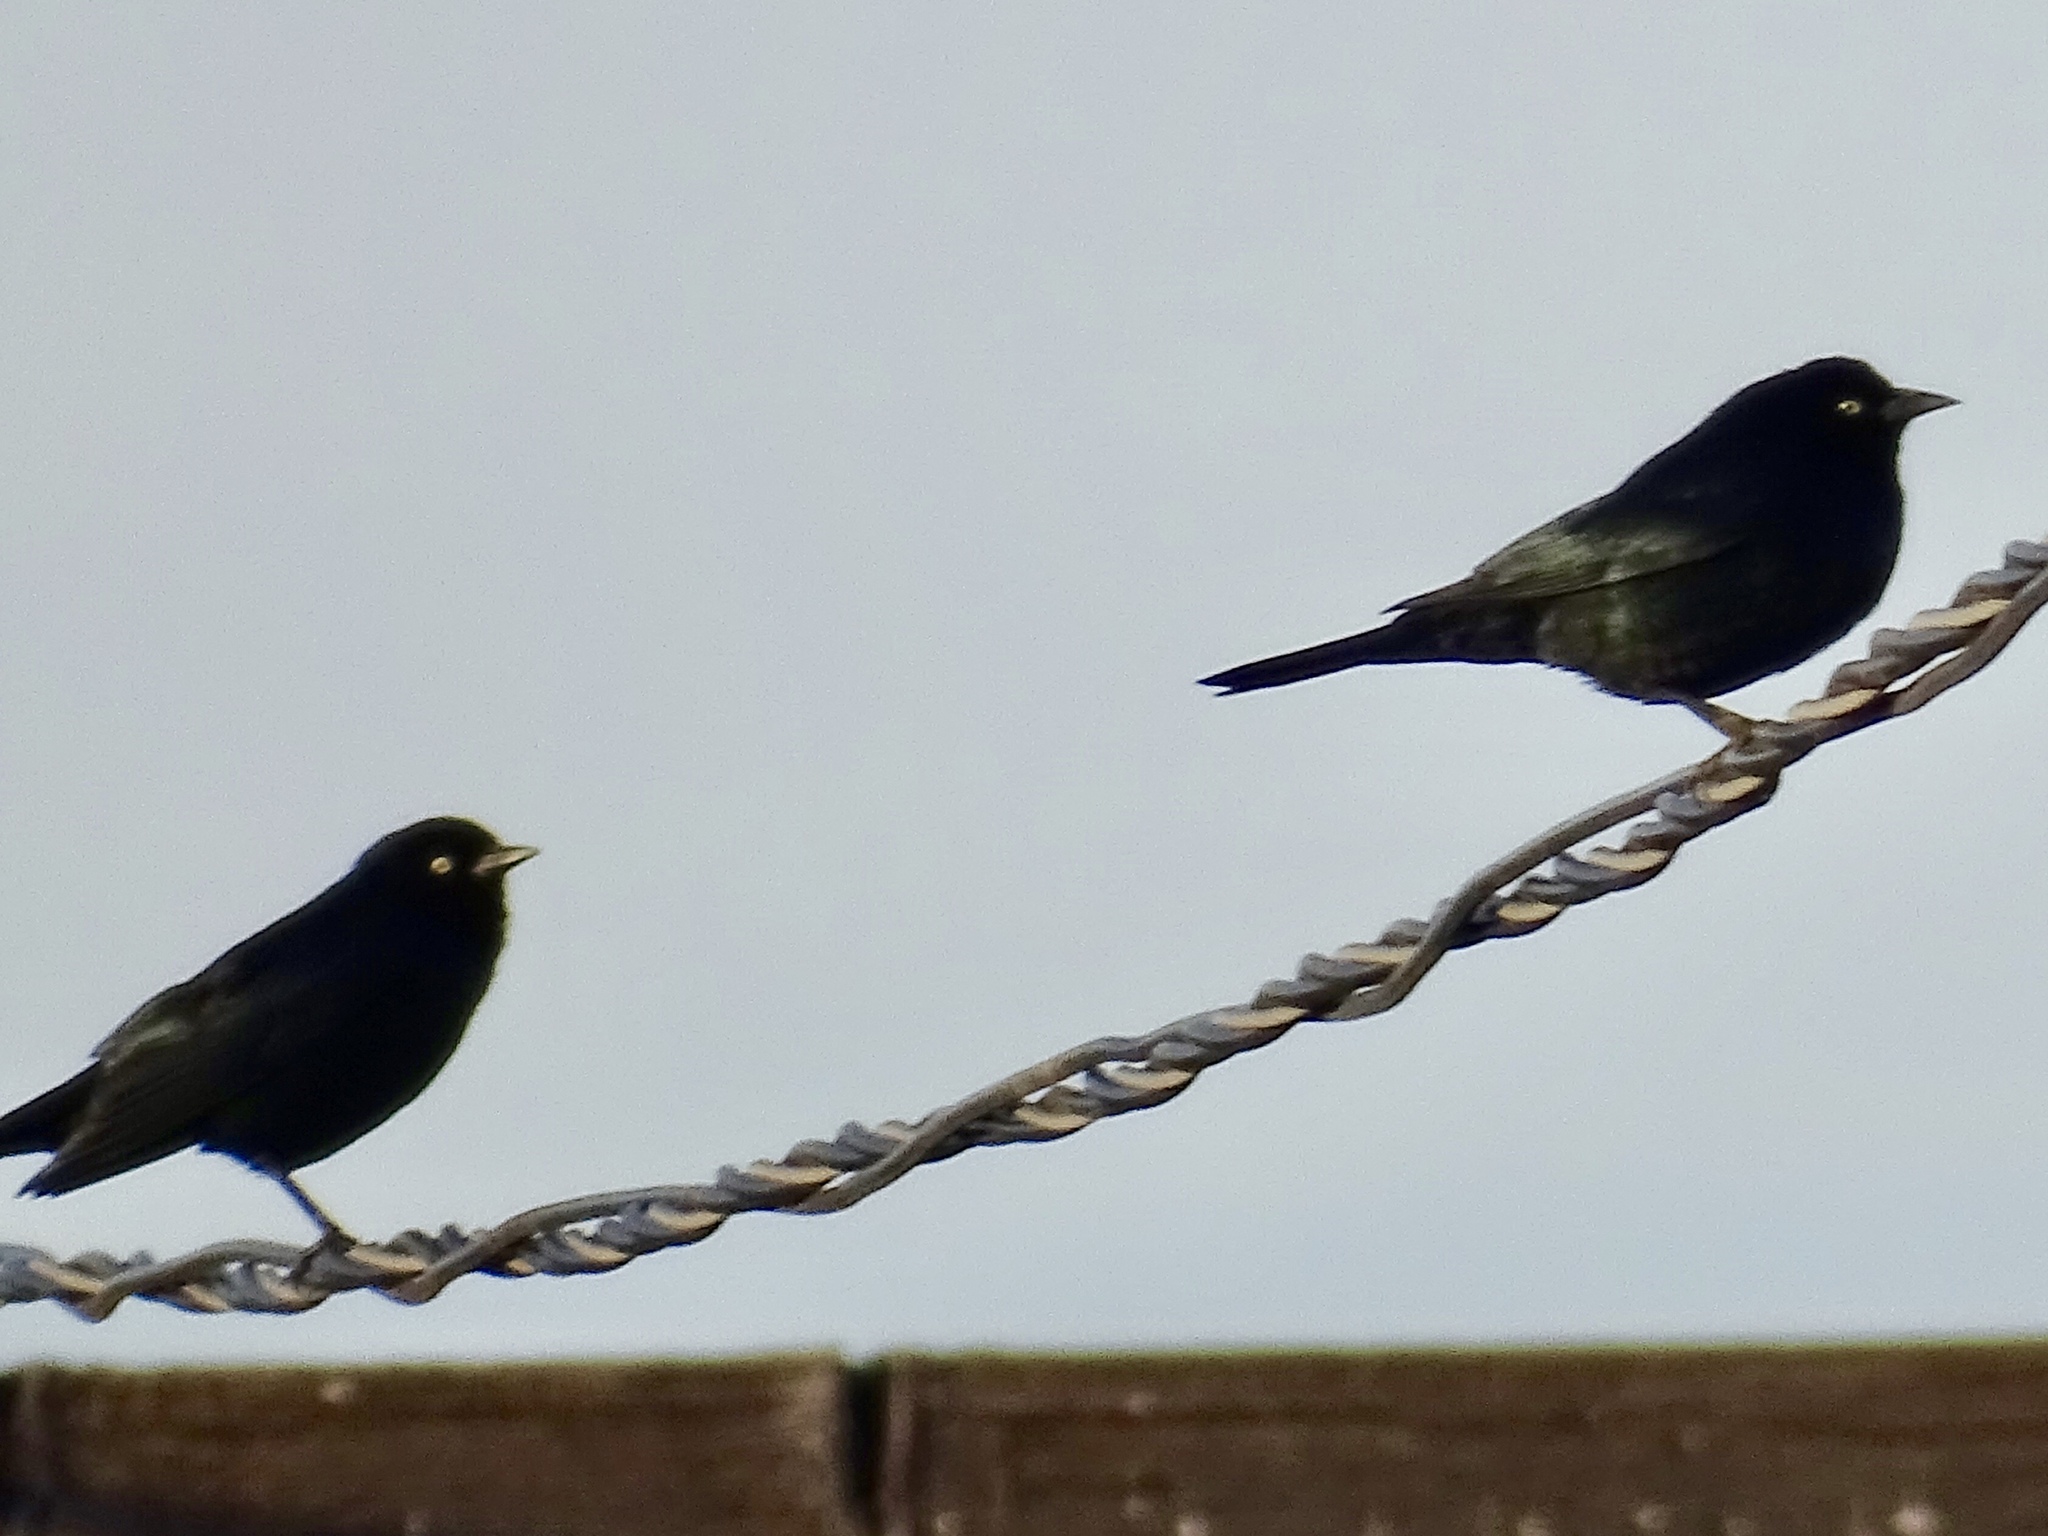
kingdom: Animalia
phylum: Chordata
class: Aves
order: Passeriformes
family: Icteridae
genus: Euphagus
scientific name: Euphagus cyanocephalus
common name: Brewer's blackbird
